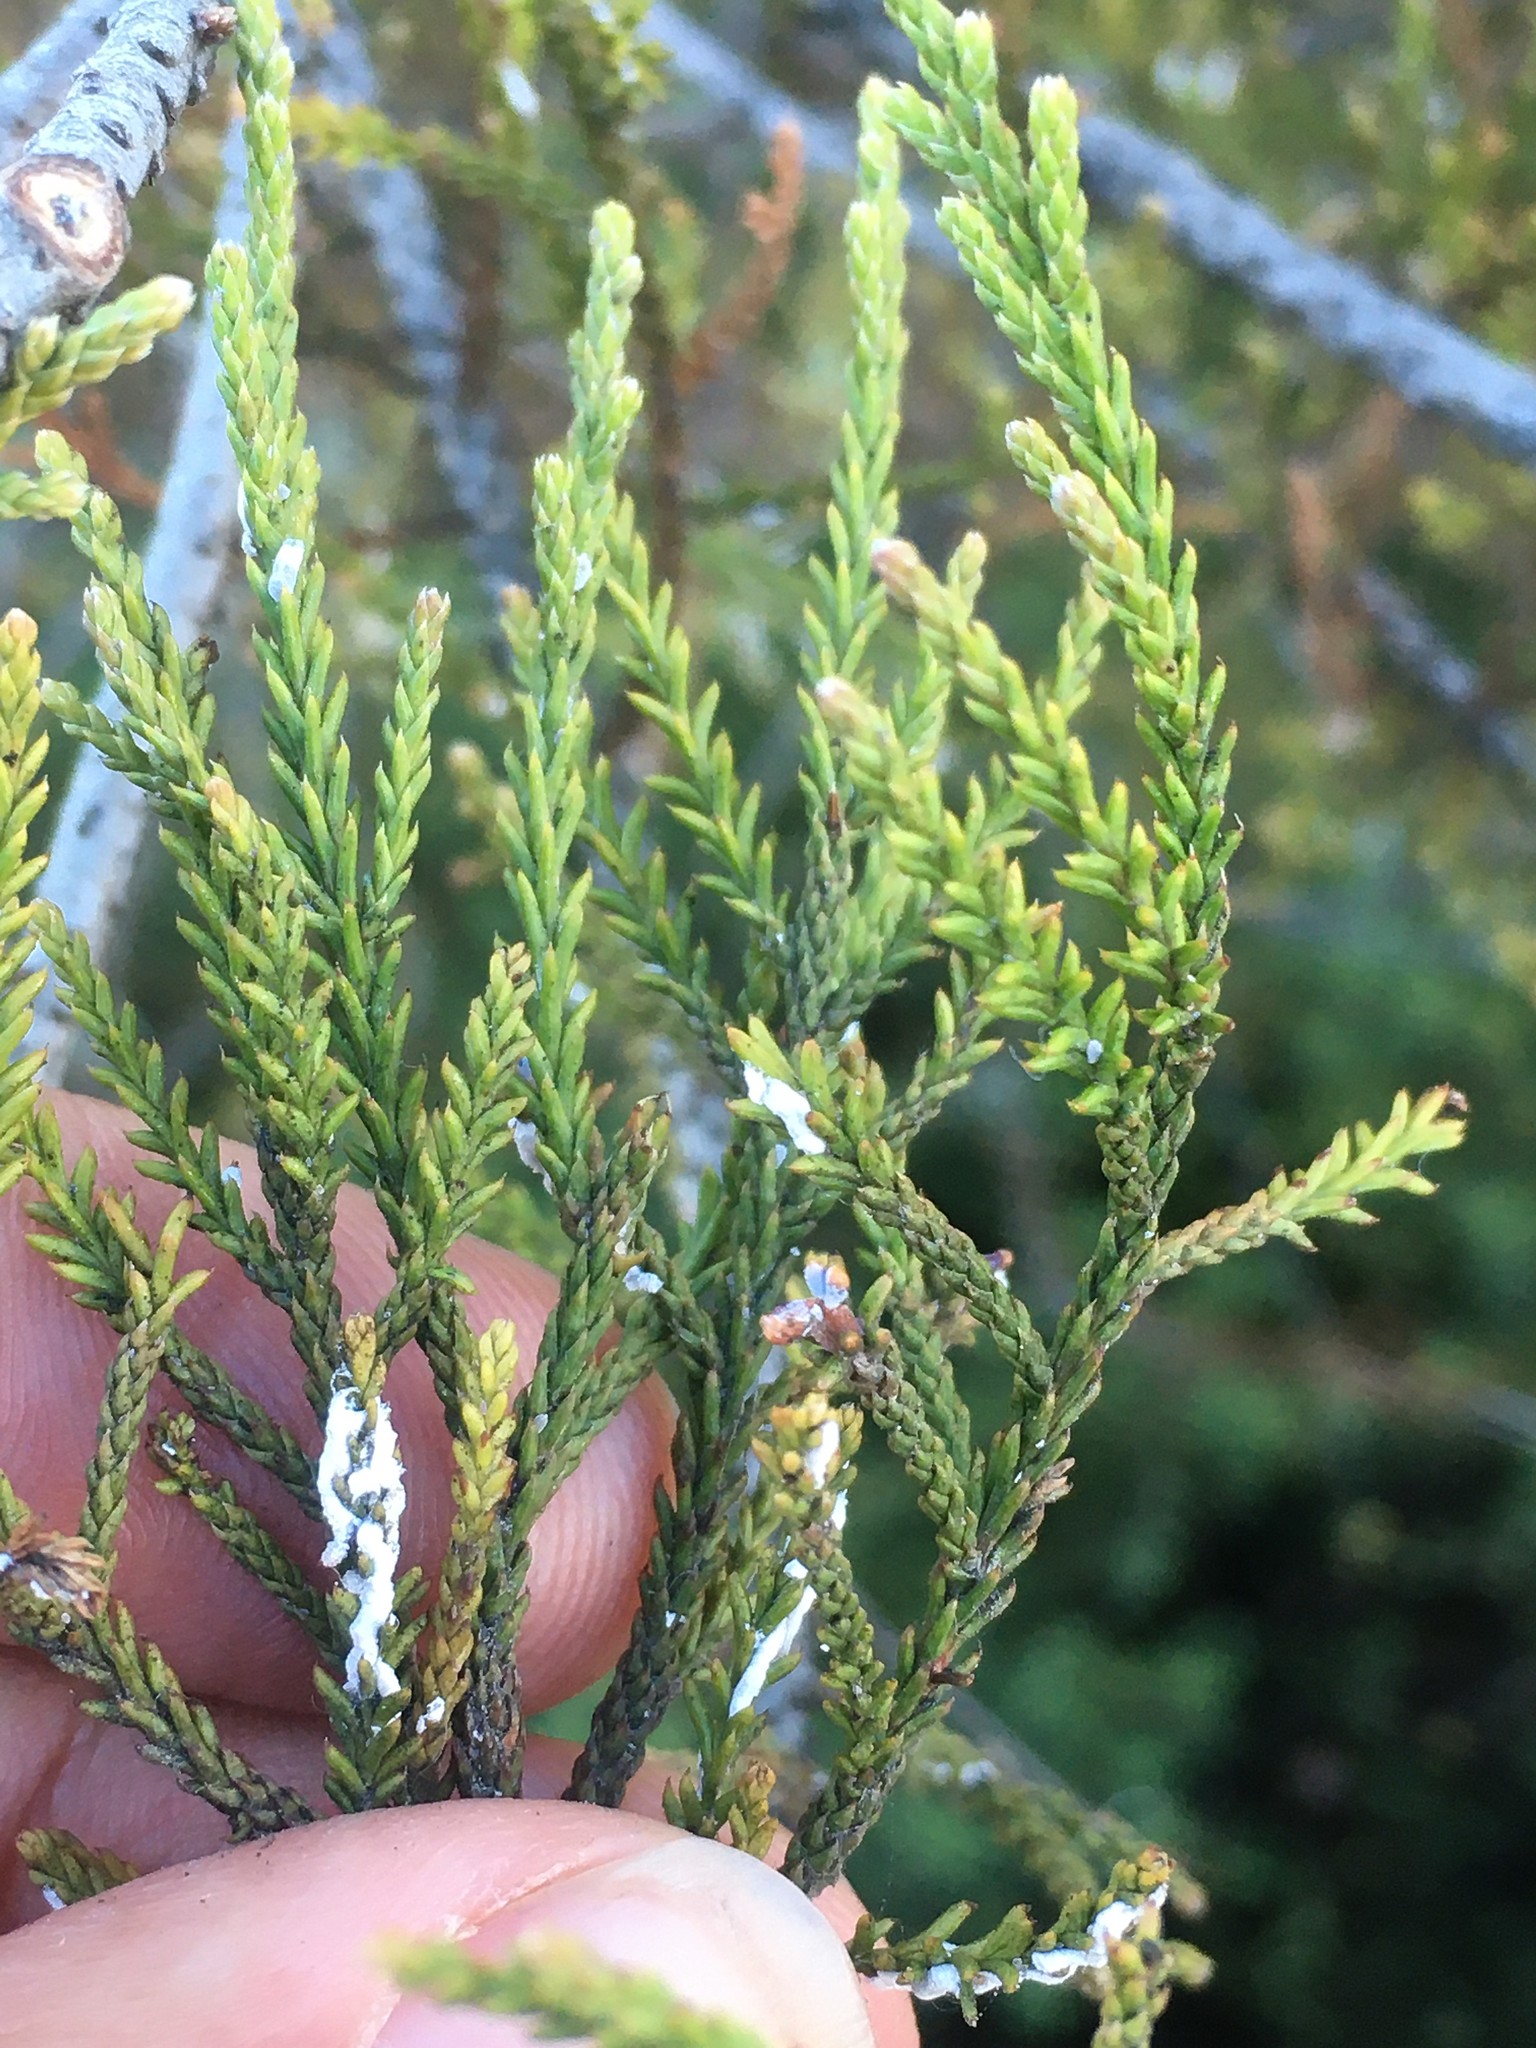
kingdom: Animalia
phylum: Arthropoda
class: Insecta
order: Hemiptera
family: Pseudococcidae
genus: Paraferrisia
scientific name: Paraferrisia podocarpi
